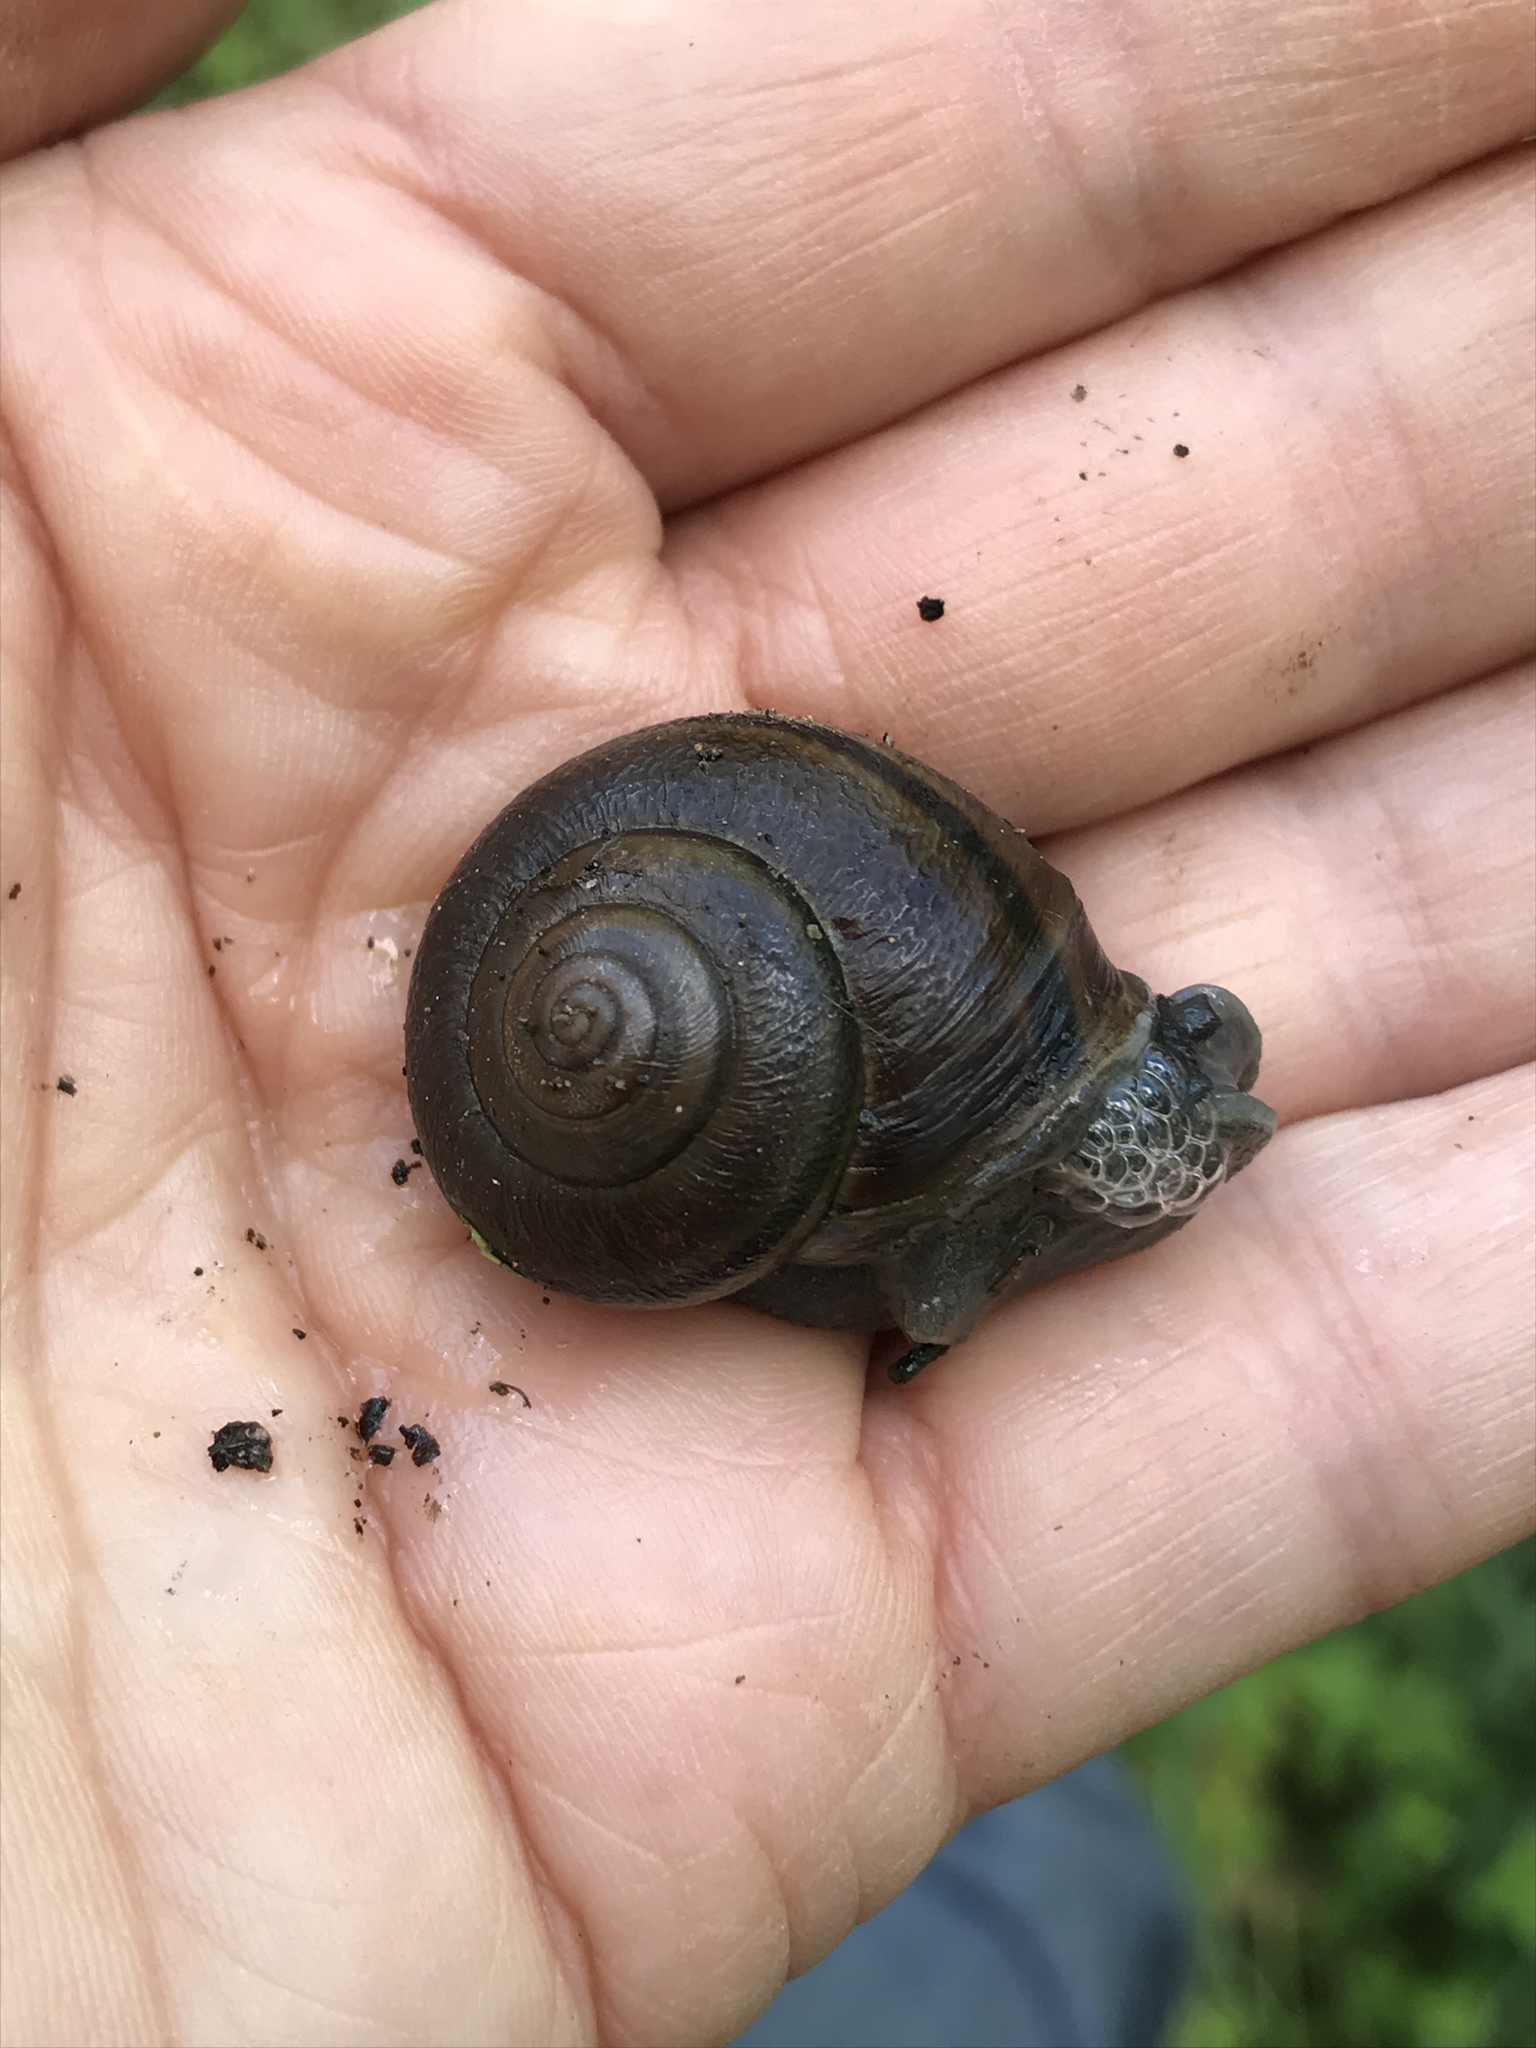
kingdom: Animalia
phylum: Mollusca
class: Gastropoda
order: Stylommatophora
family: Xanthonychidae
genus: Helminthoglypta
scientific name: Helminthoglypta tudiculata
